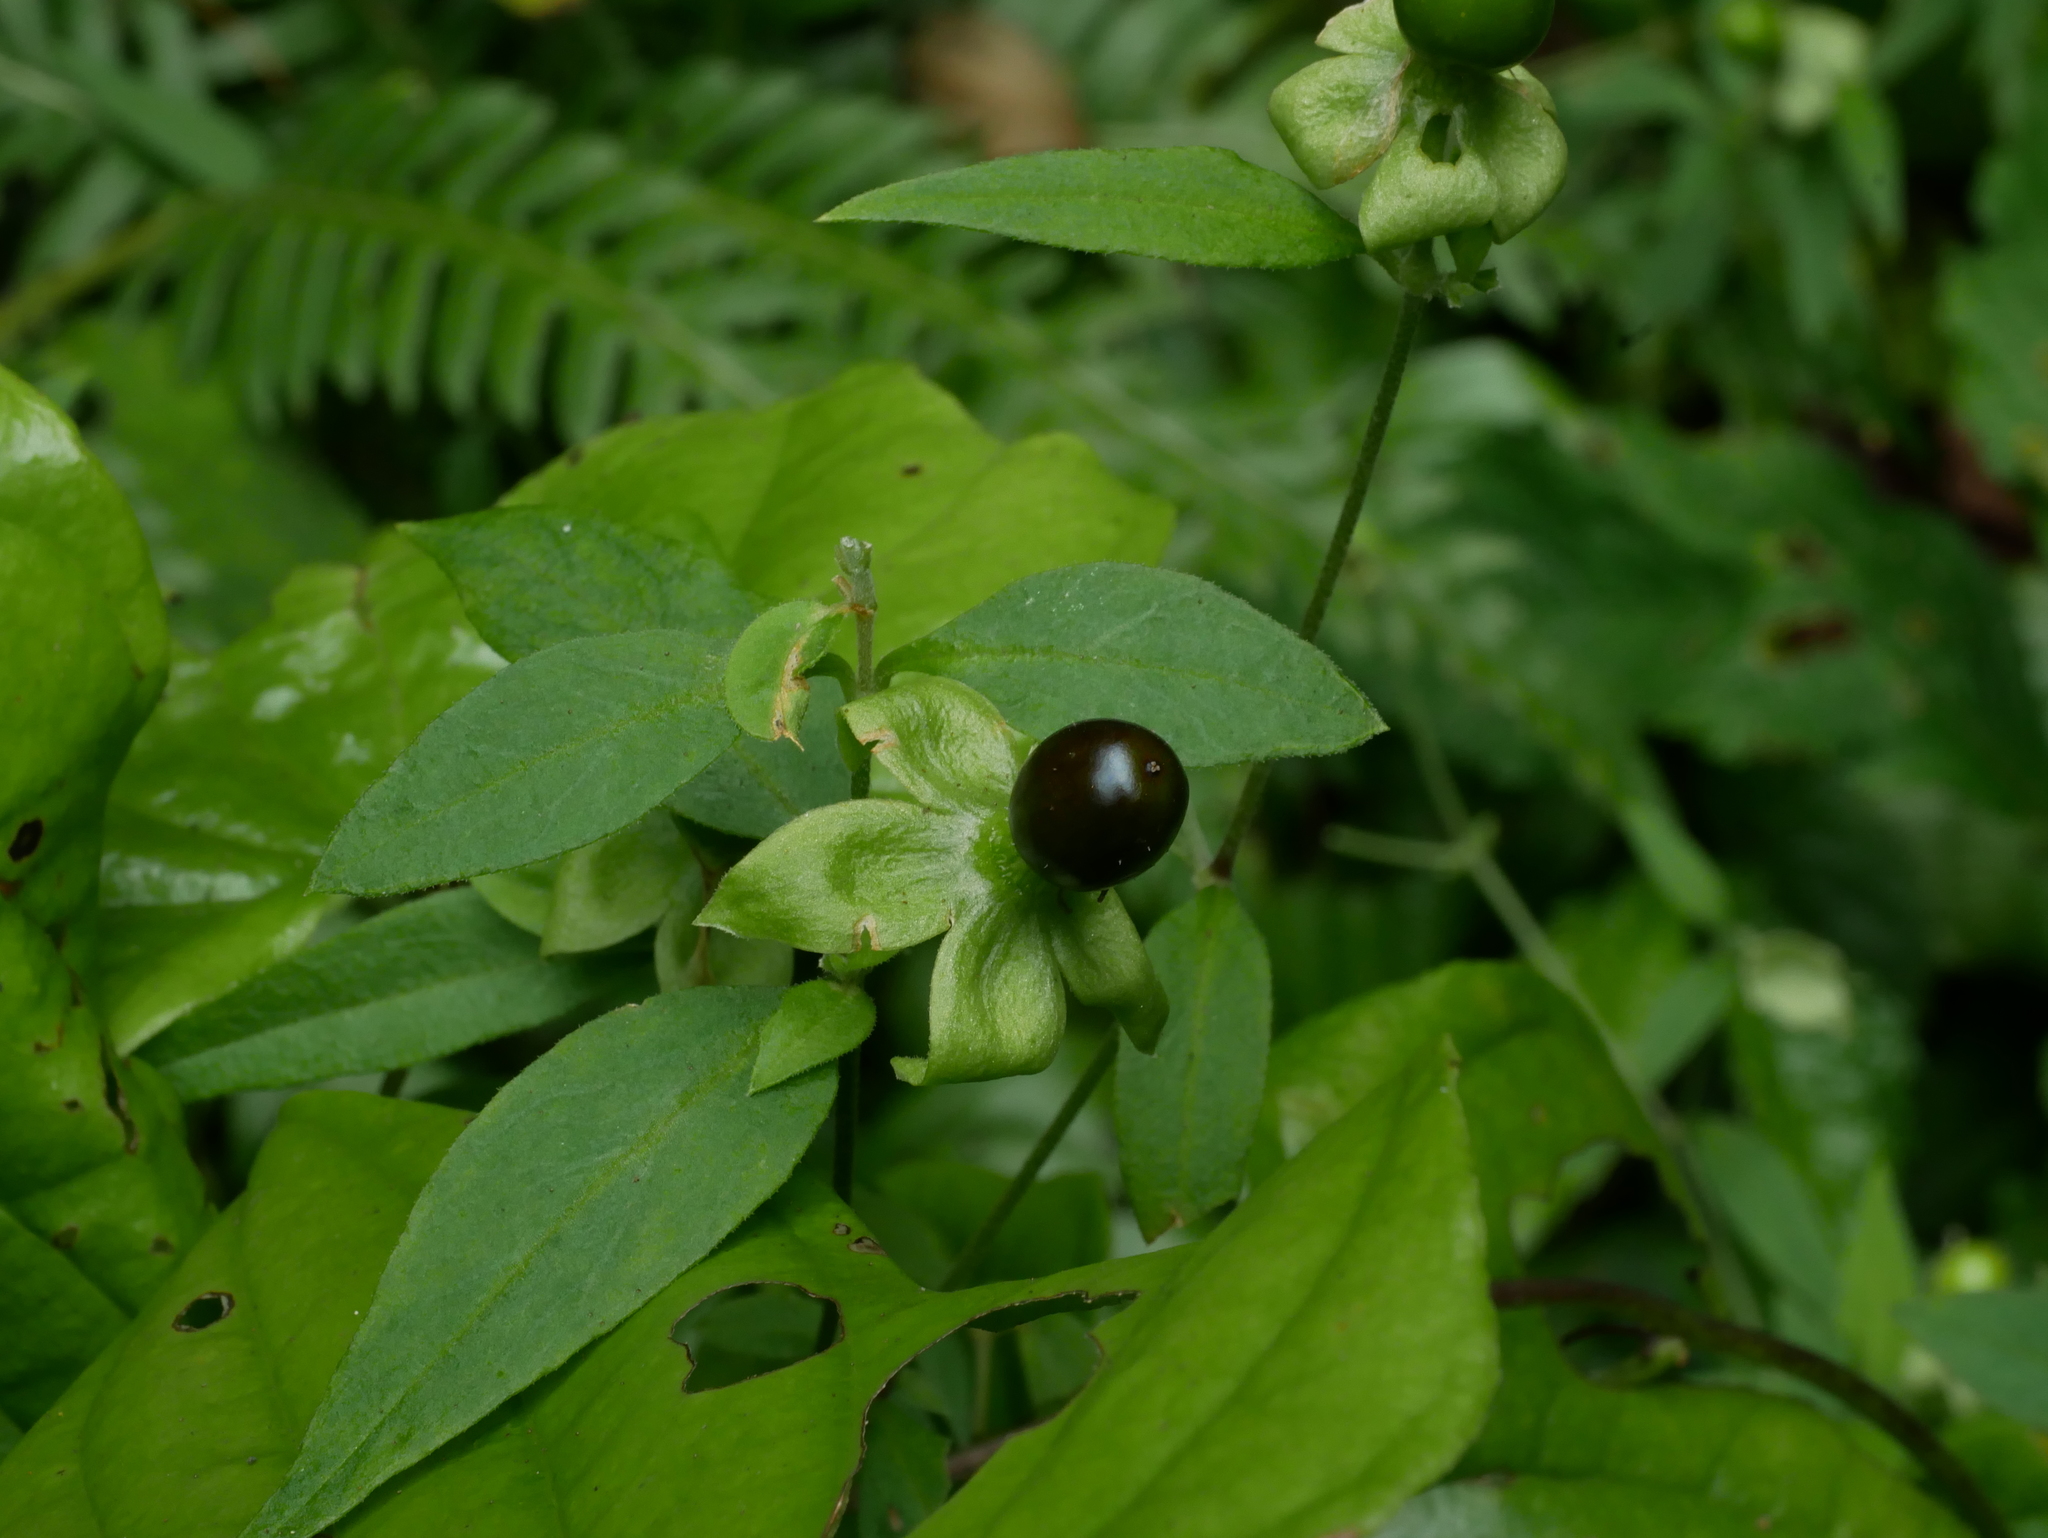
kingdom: Plantae
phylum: Tracheophyta
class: Magnoliopsida
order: Caryophyllales
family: Caryophyllaceae
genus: Silene
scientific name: Silene baccifera
